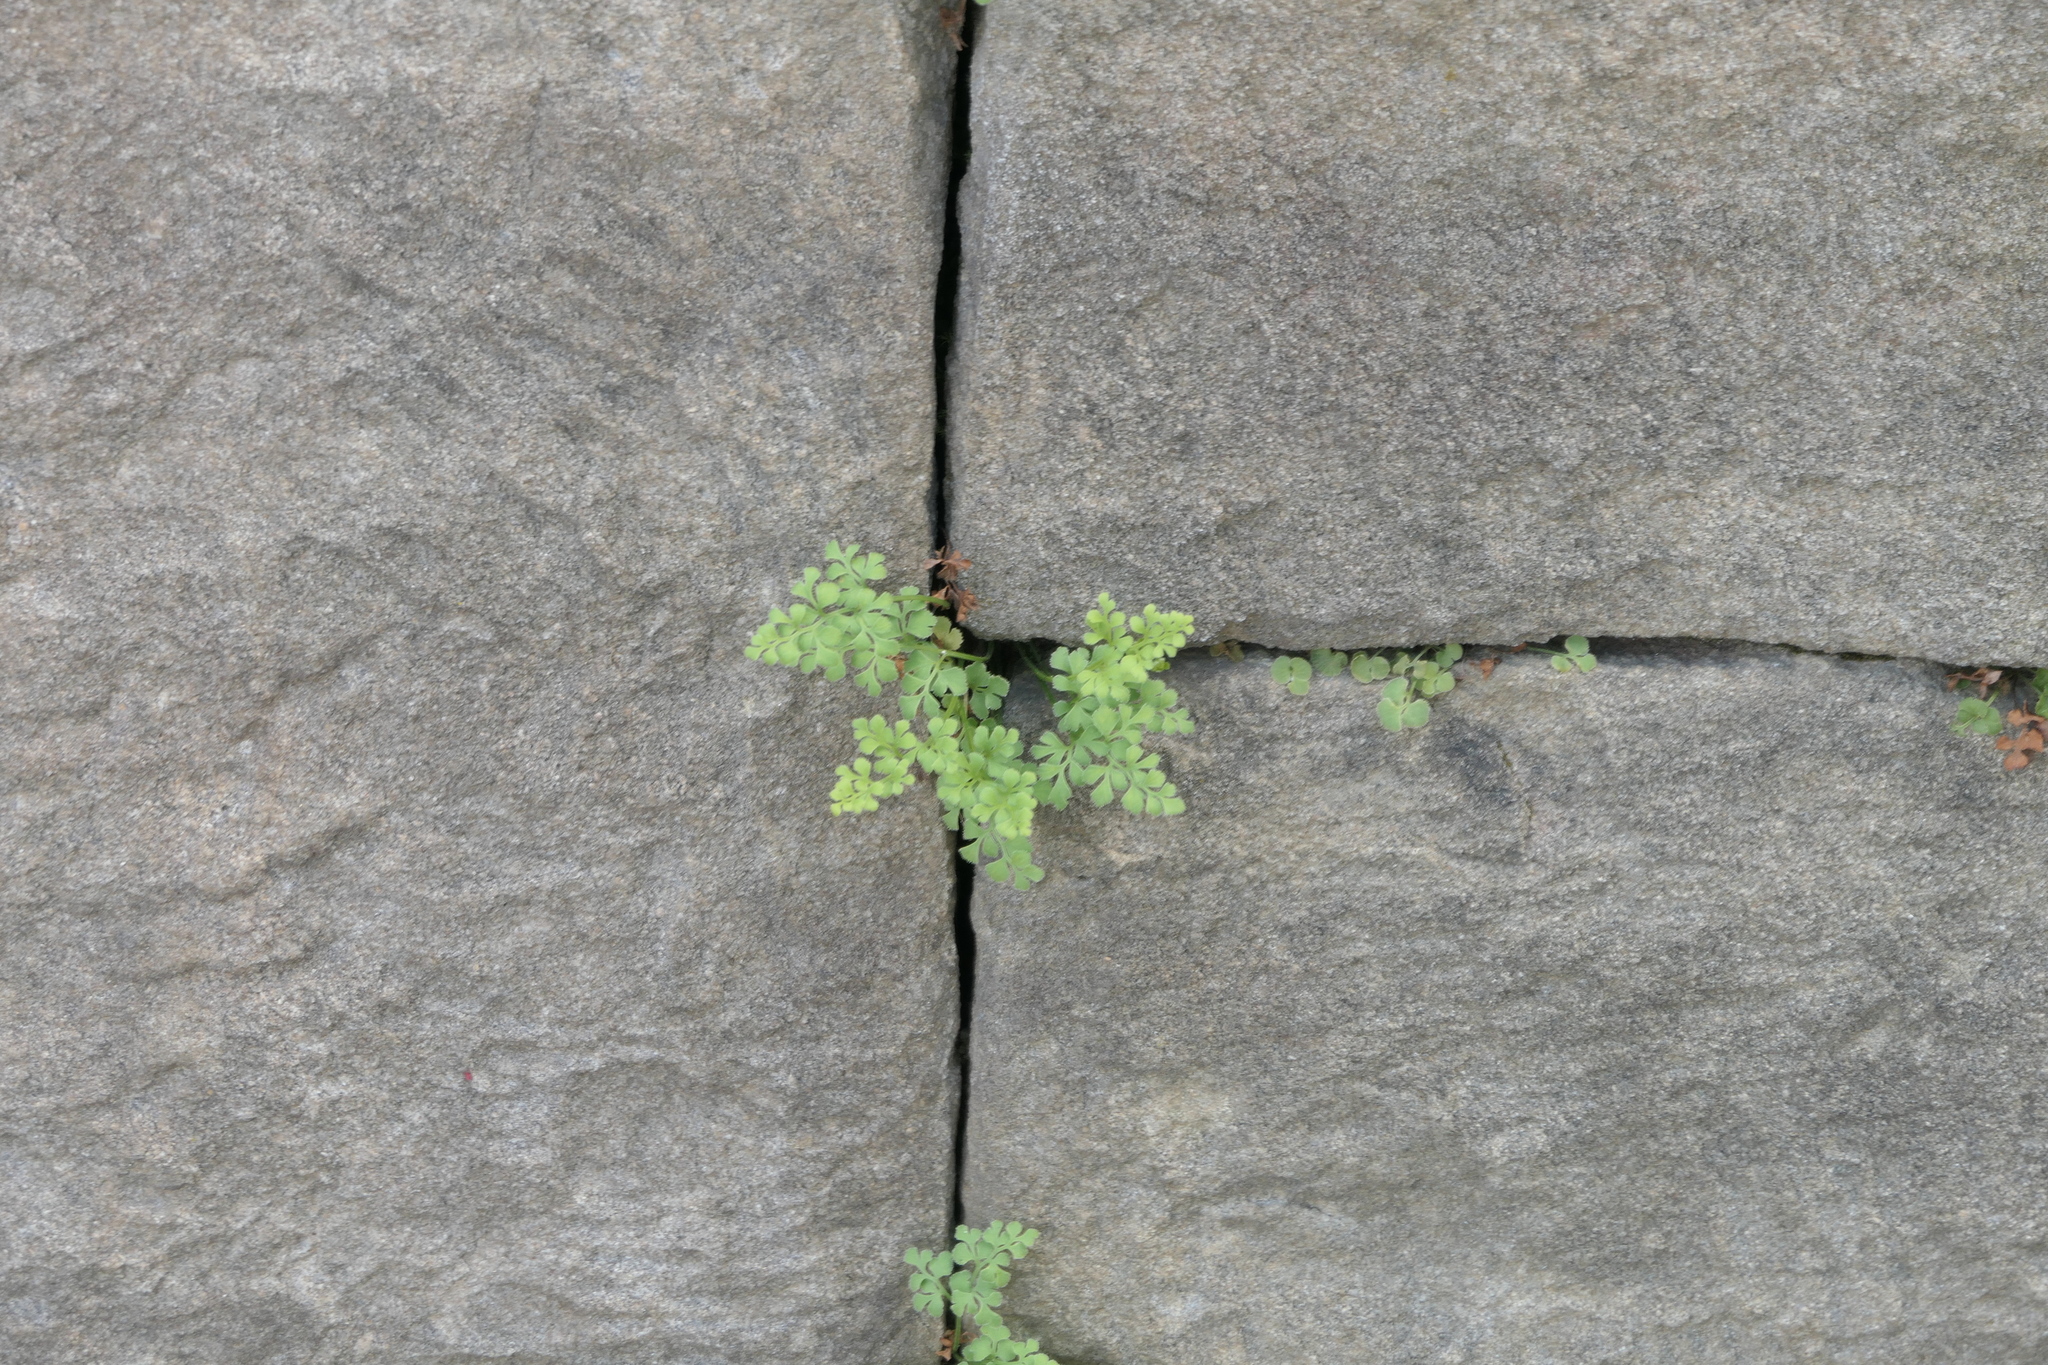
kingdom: Plantae
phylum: Tracheophyta
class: Polypodiopsida
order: Polypodiales
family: Aspleniaceae
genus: Asplenium
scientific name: Asplenium ruta-muraria
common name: Wall-rue
